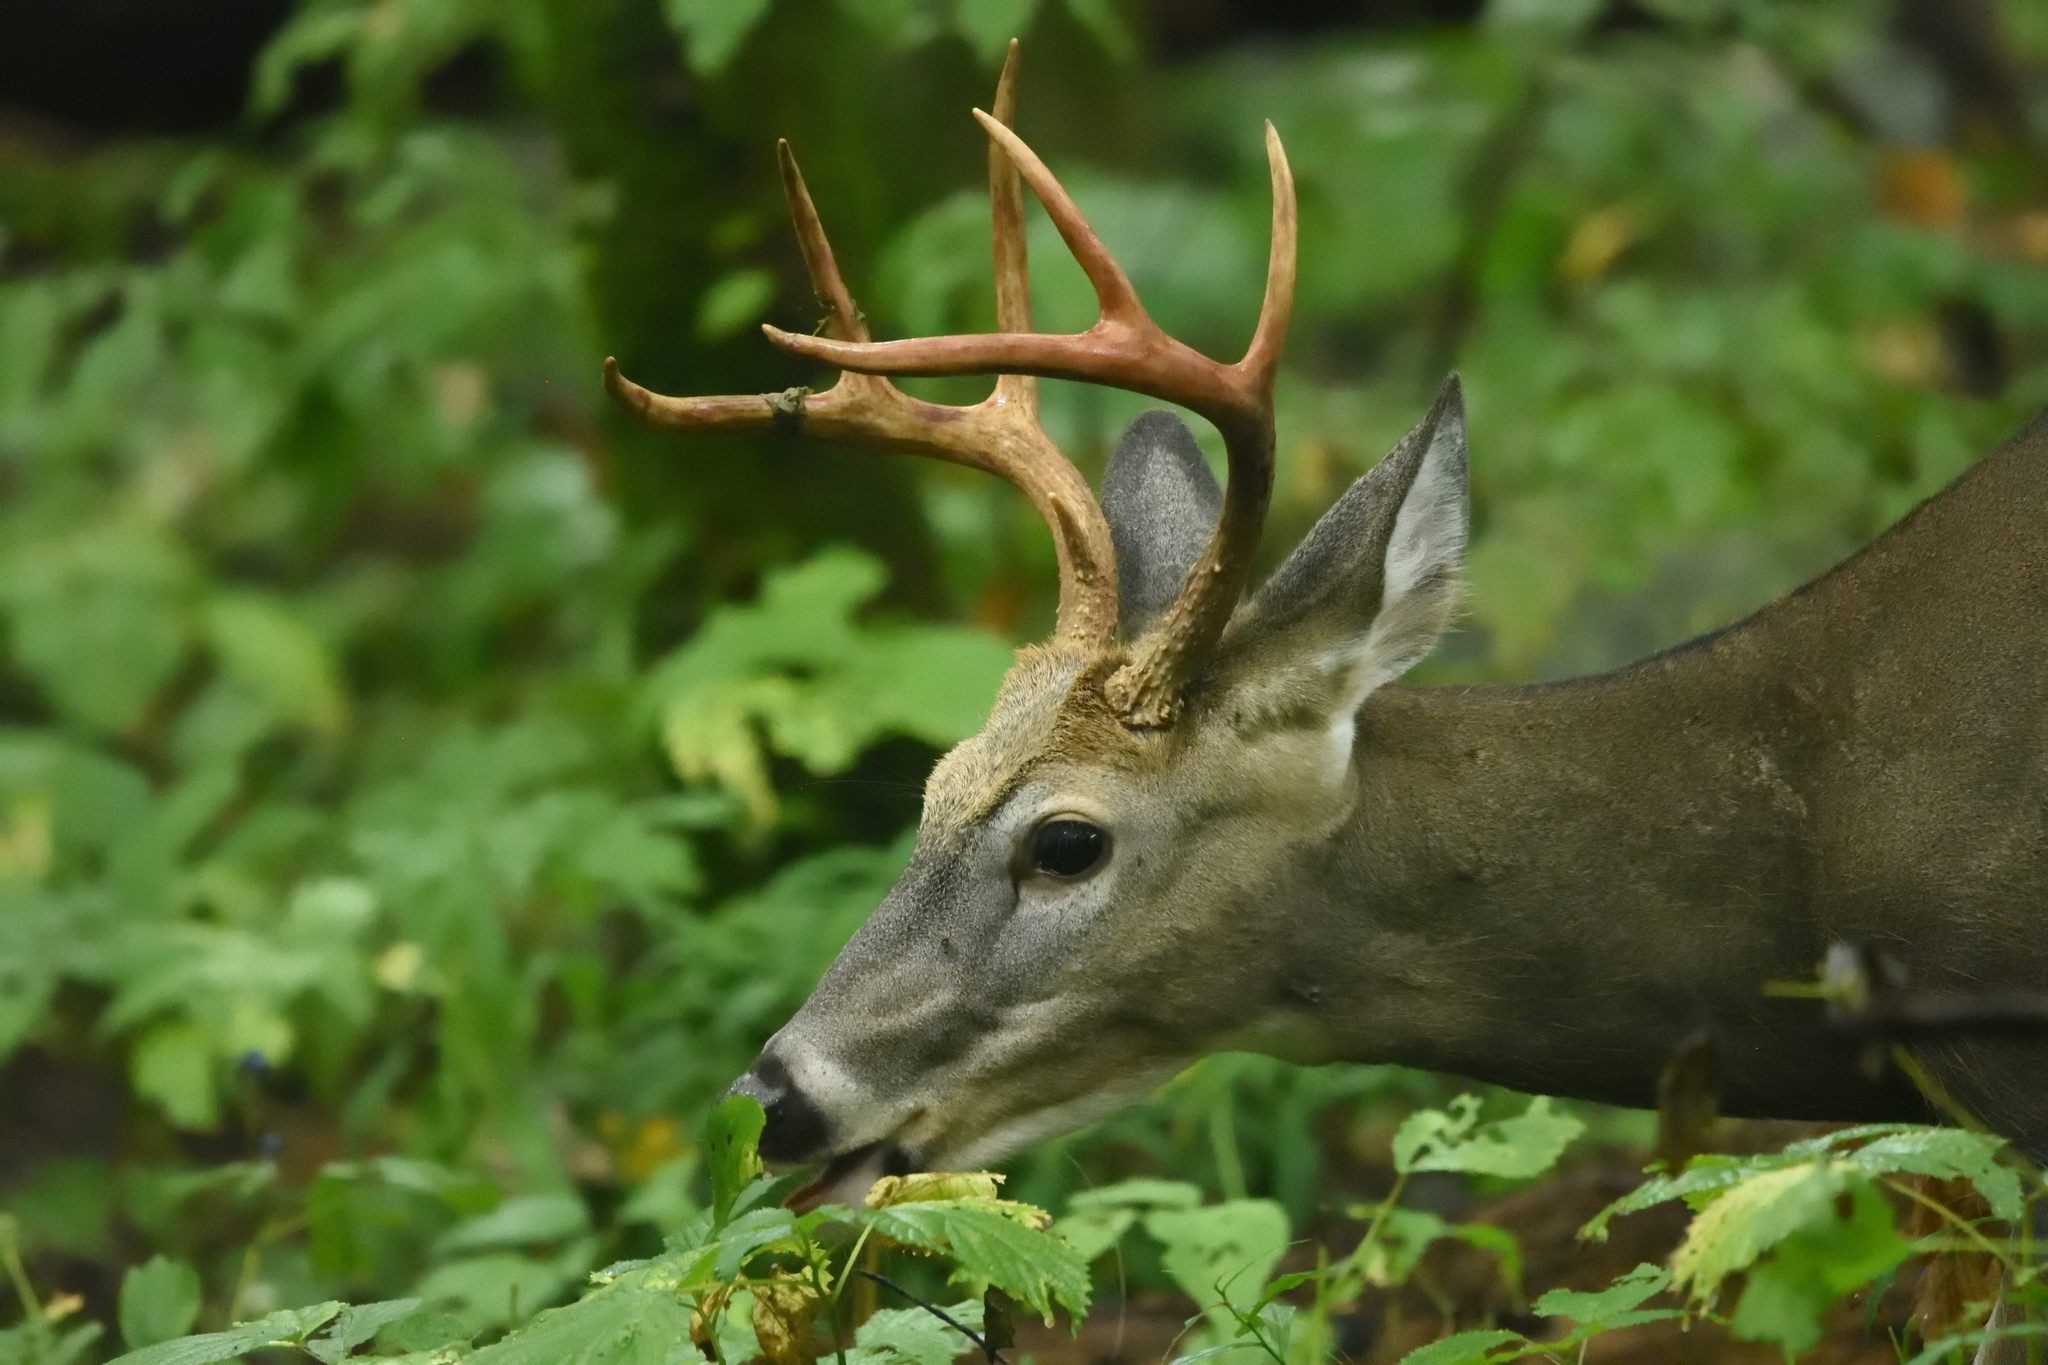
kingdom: Animalia
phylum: Chordata
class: Mammalia
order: Artiodactyla
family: Cervidae
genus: Odocoileus
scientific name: Odocoileus virginianus
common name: White-tailed deer
